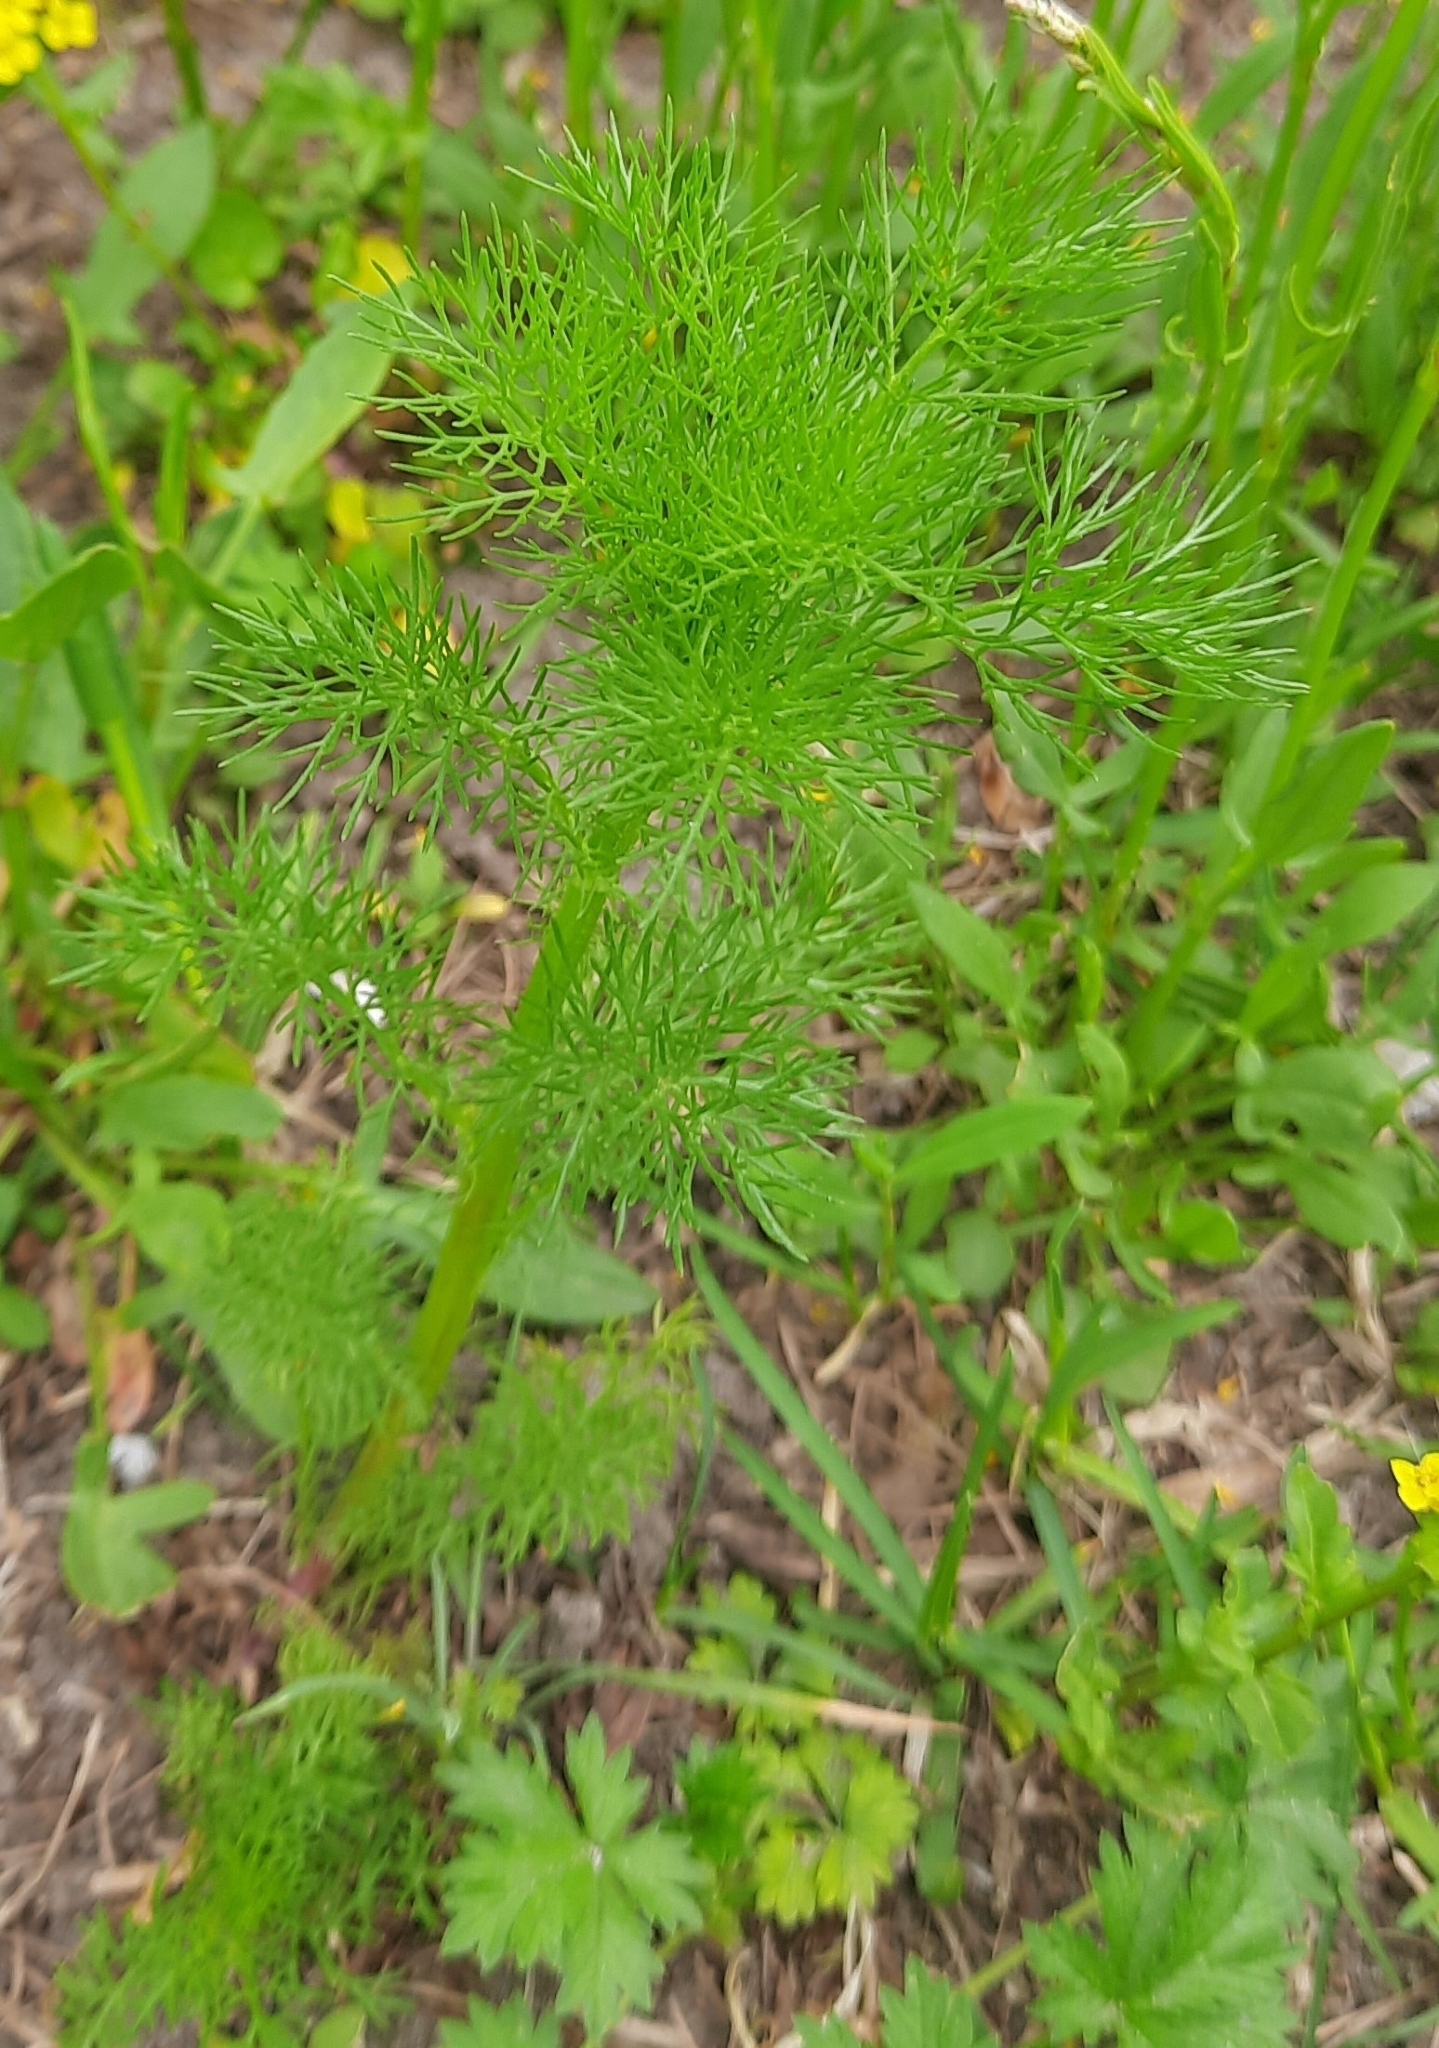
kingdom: Plantae
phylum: Tracheophyta
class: Magnoliopsida
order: Asterales
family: Asteraceae
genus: Tripleurospermum
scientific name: Tripleurospermum inodorum
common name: Scentless mayweed
